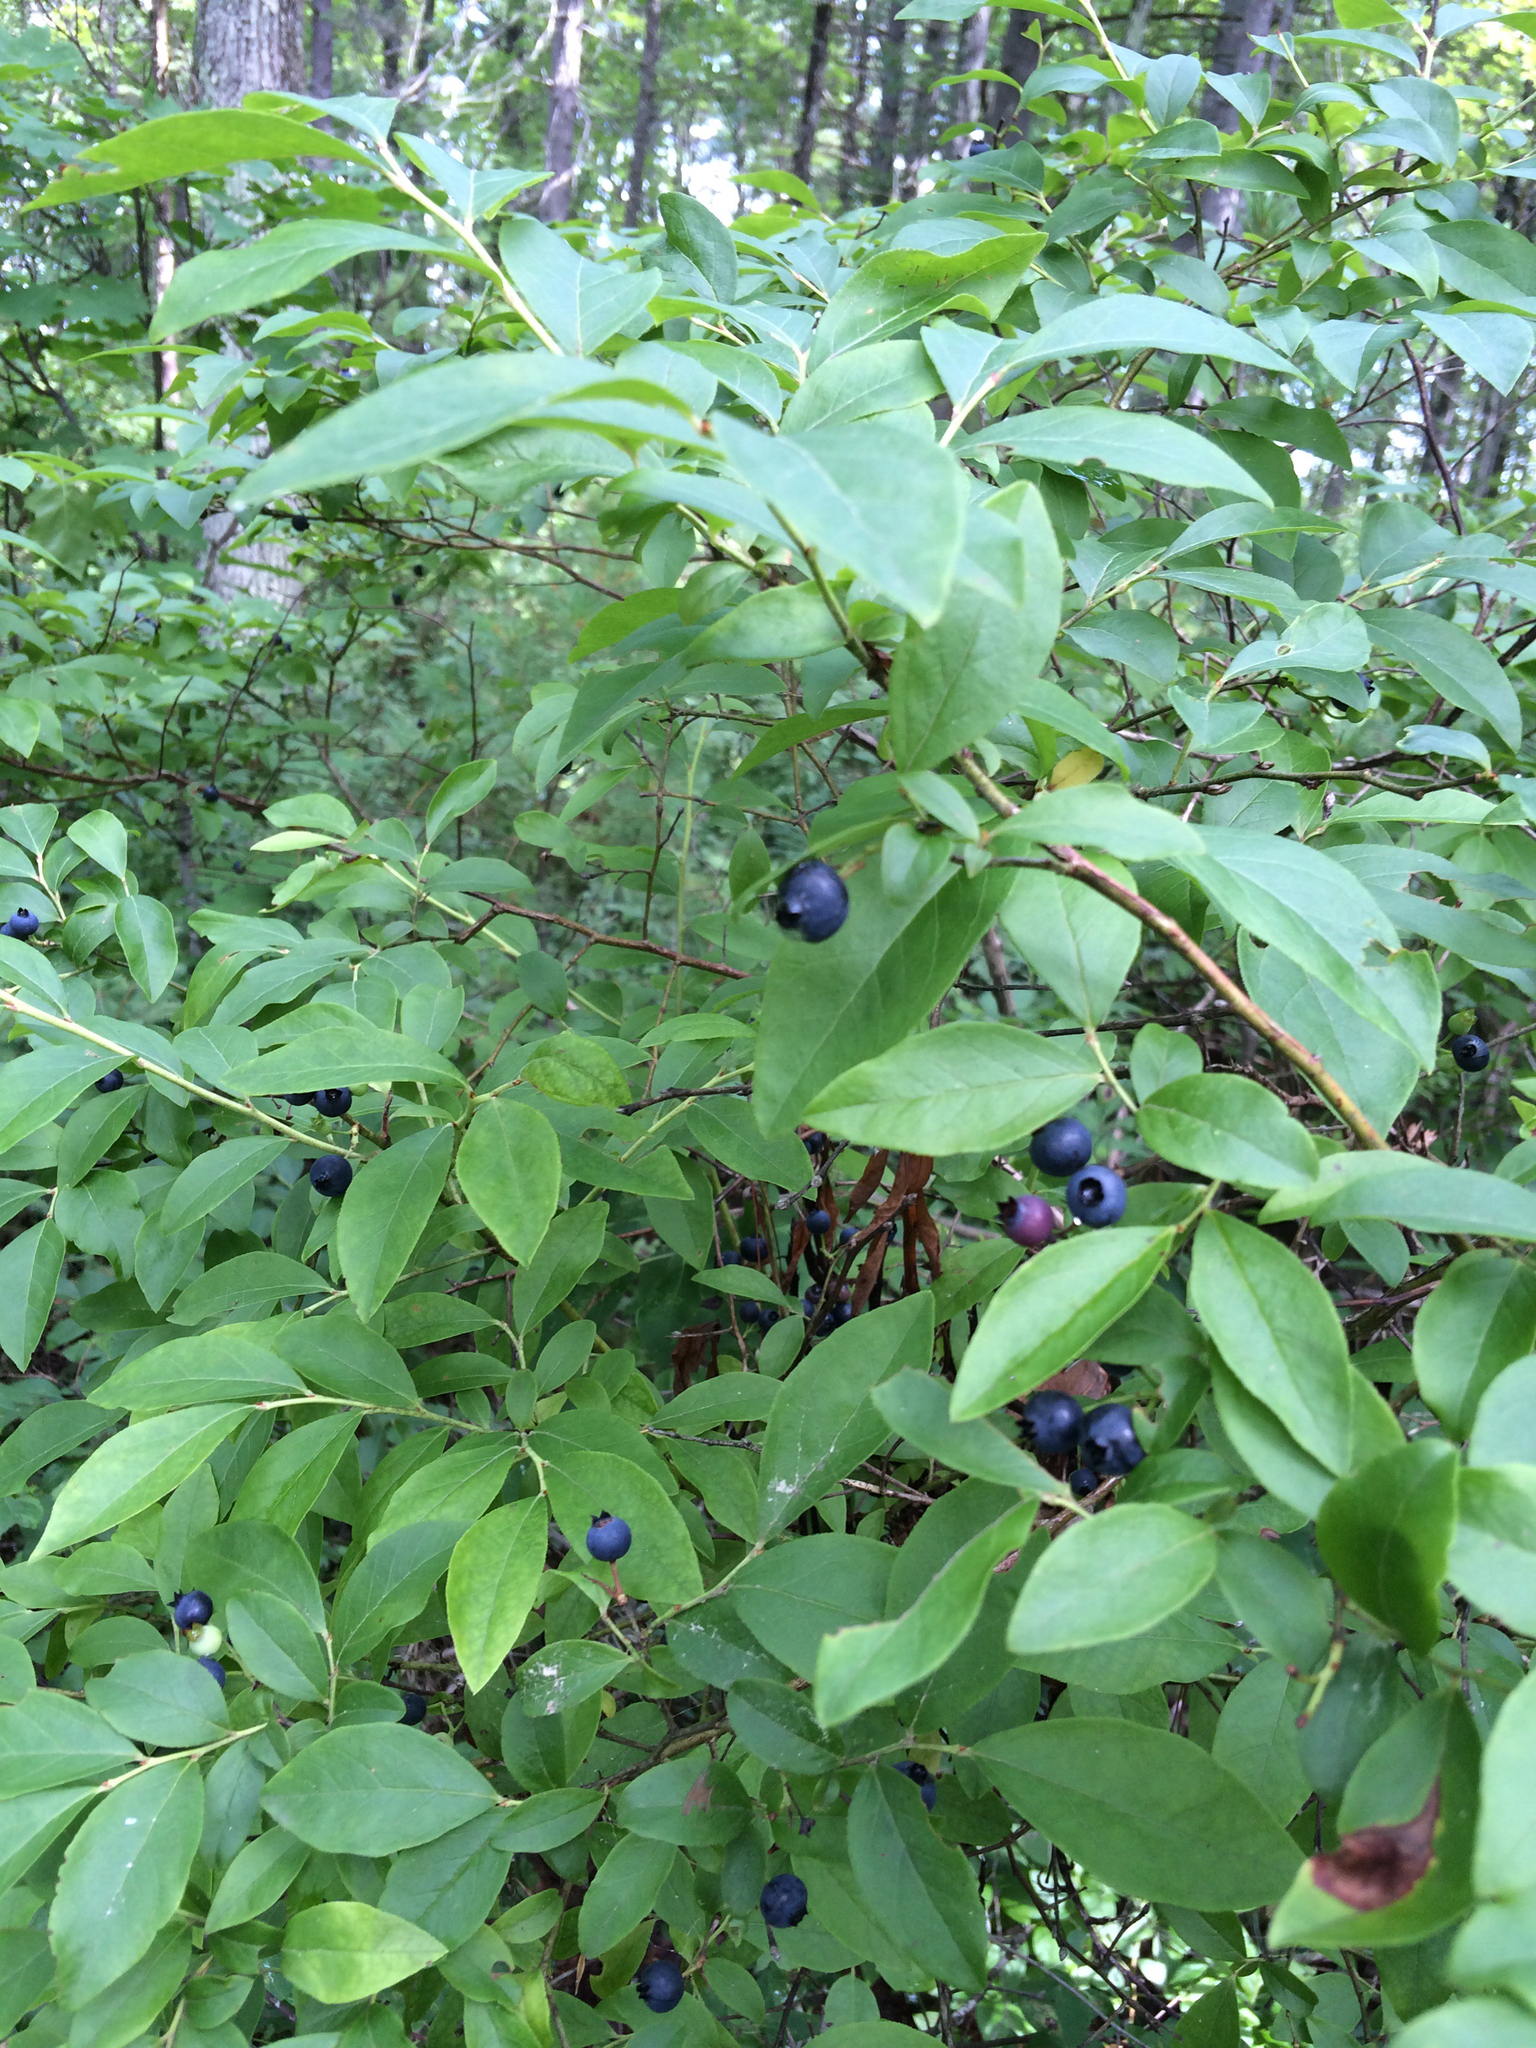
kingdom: Plantae
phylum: Tracheophyta
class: Magnoliopsida
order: Ericales
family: Ericaceae
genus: Vaccinium
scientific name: Vaccinium corymbosum
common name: Blueberry
